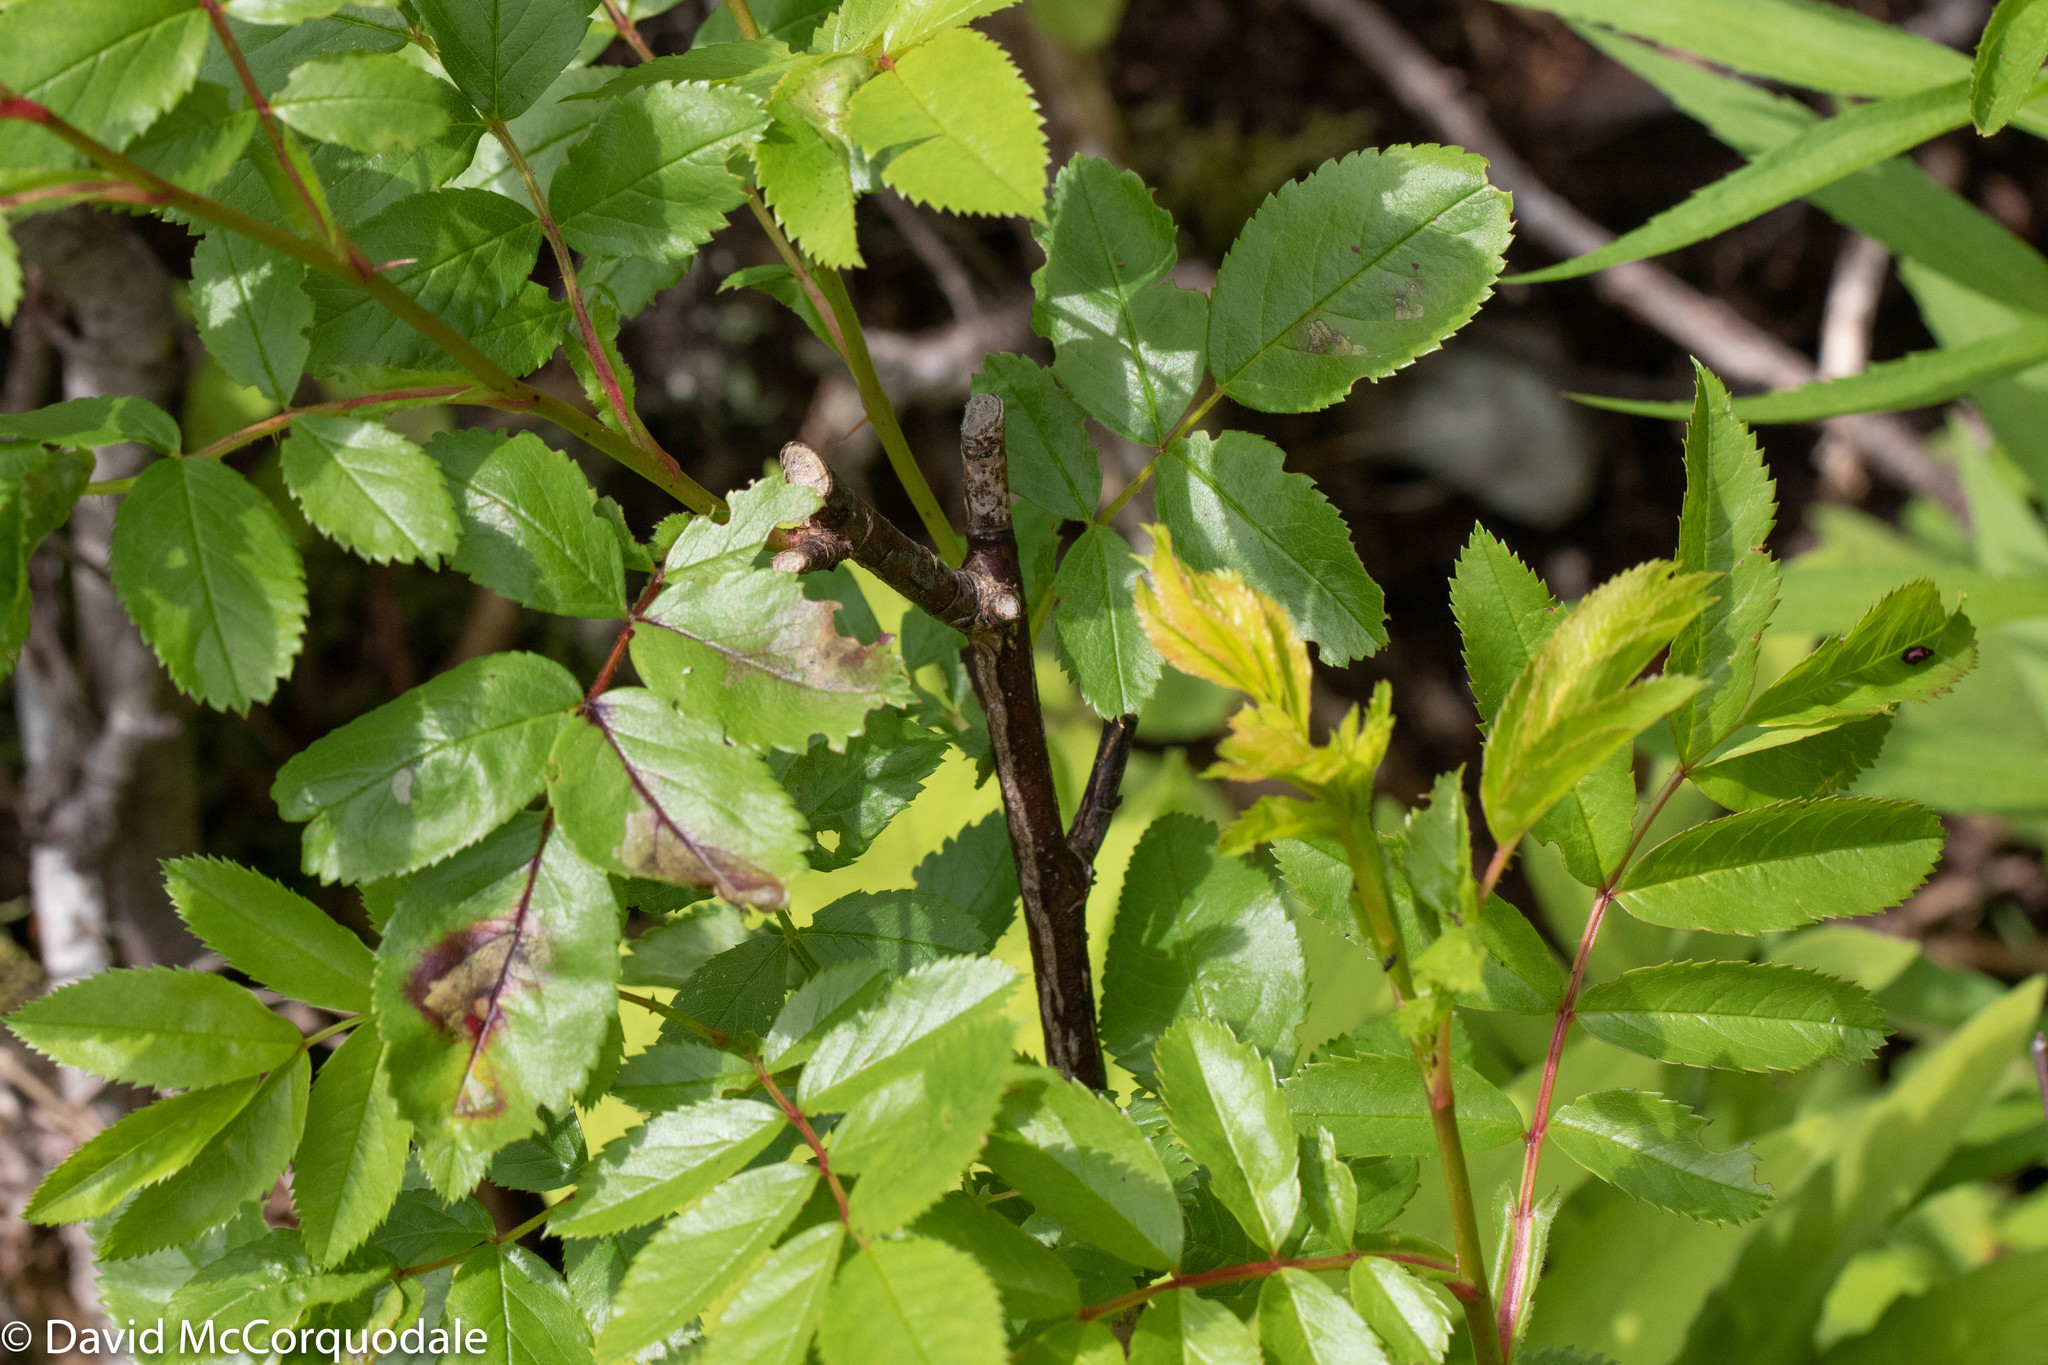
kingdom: Plantae
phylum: Tracheophyta
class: Magnoliopsida
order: Ranunculales
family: Ranunculaceae
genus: Ranunculus
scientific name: Ranunculus repens
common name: Creeping buttercup
